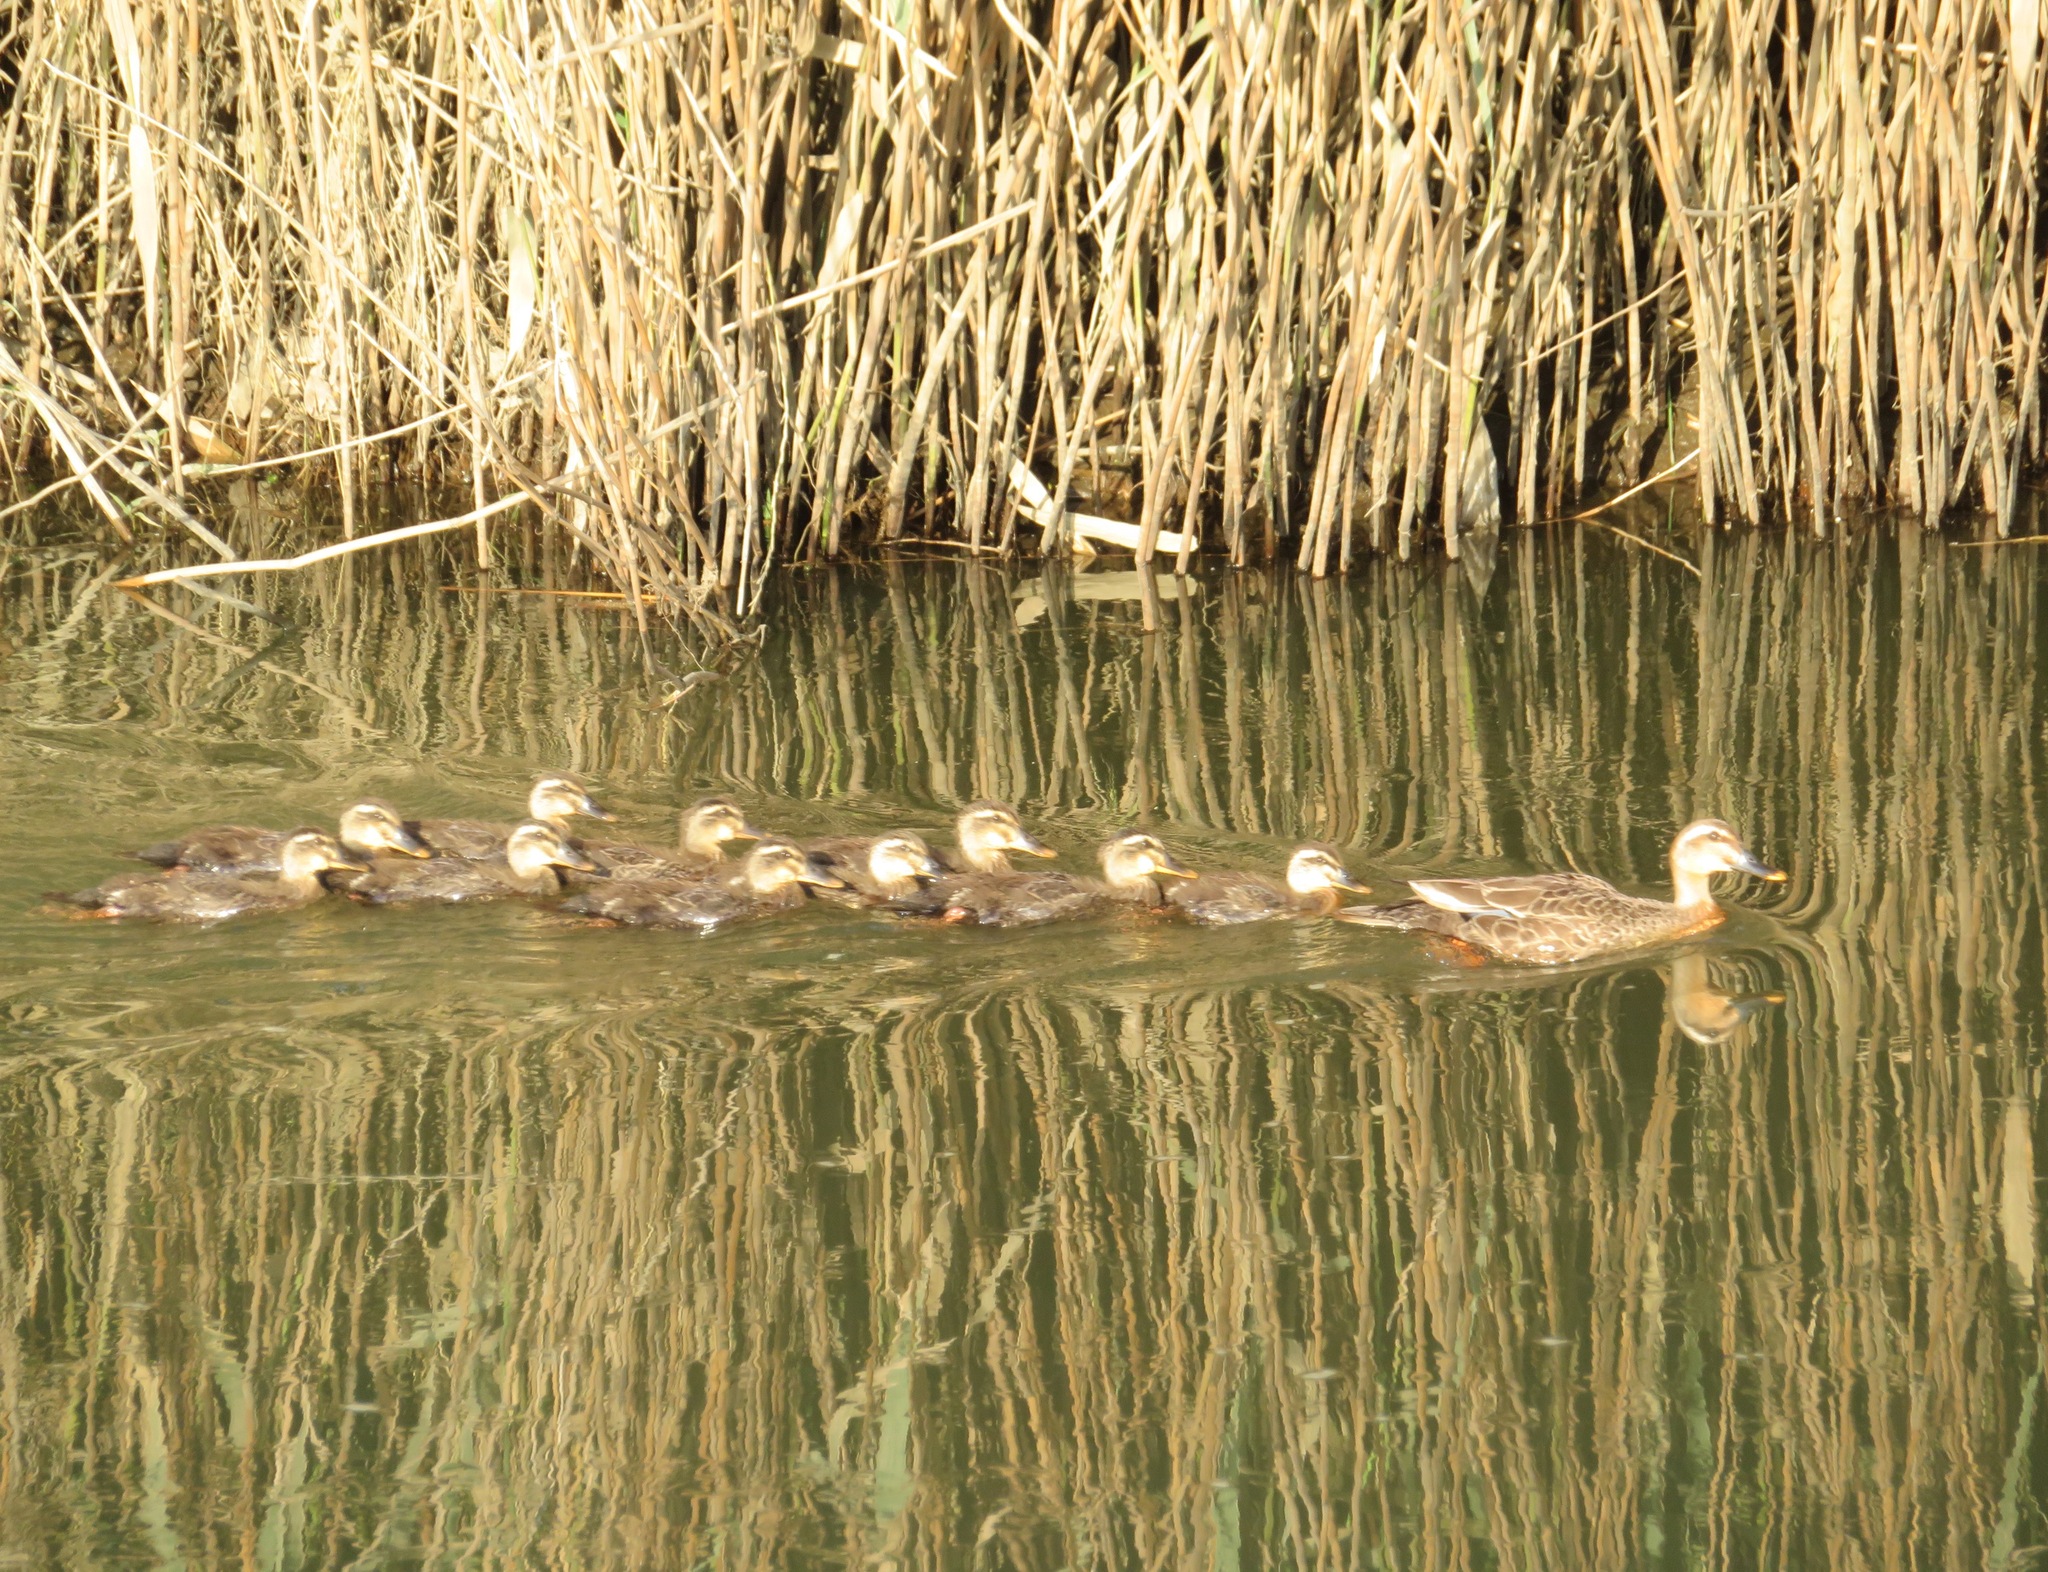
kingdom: Animalia
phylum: Chordata
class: Aves
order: Anseriformes
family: Anatidae
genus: Anas
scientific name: Anas zonorhyncha
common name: Eastern spot-billed duck
